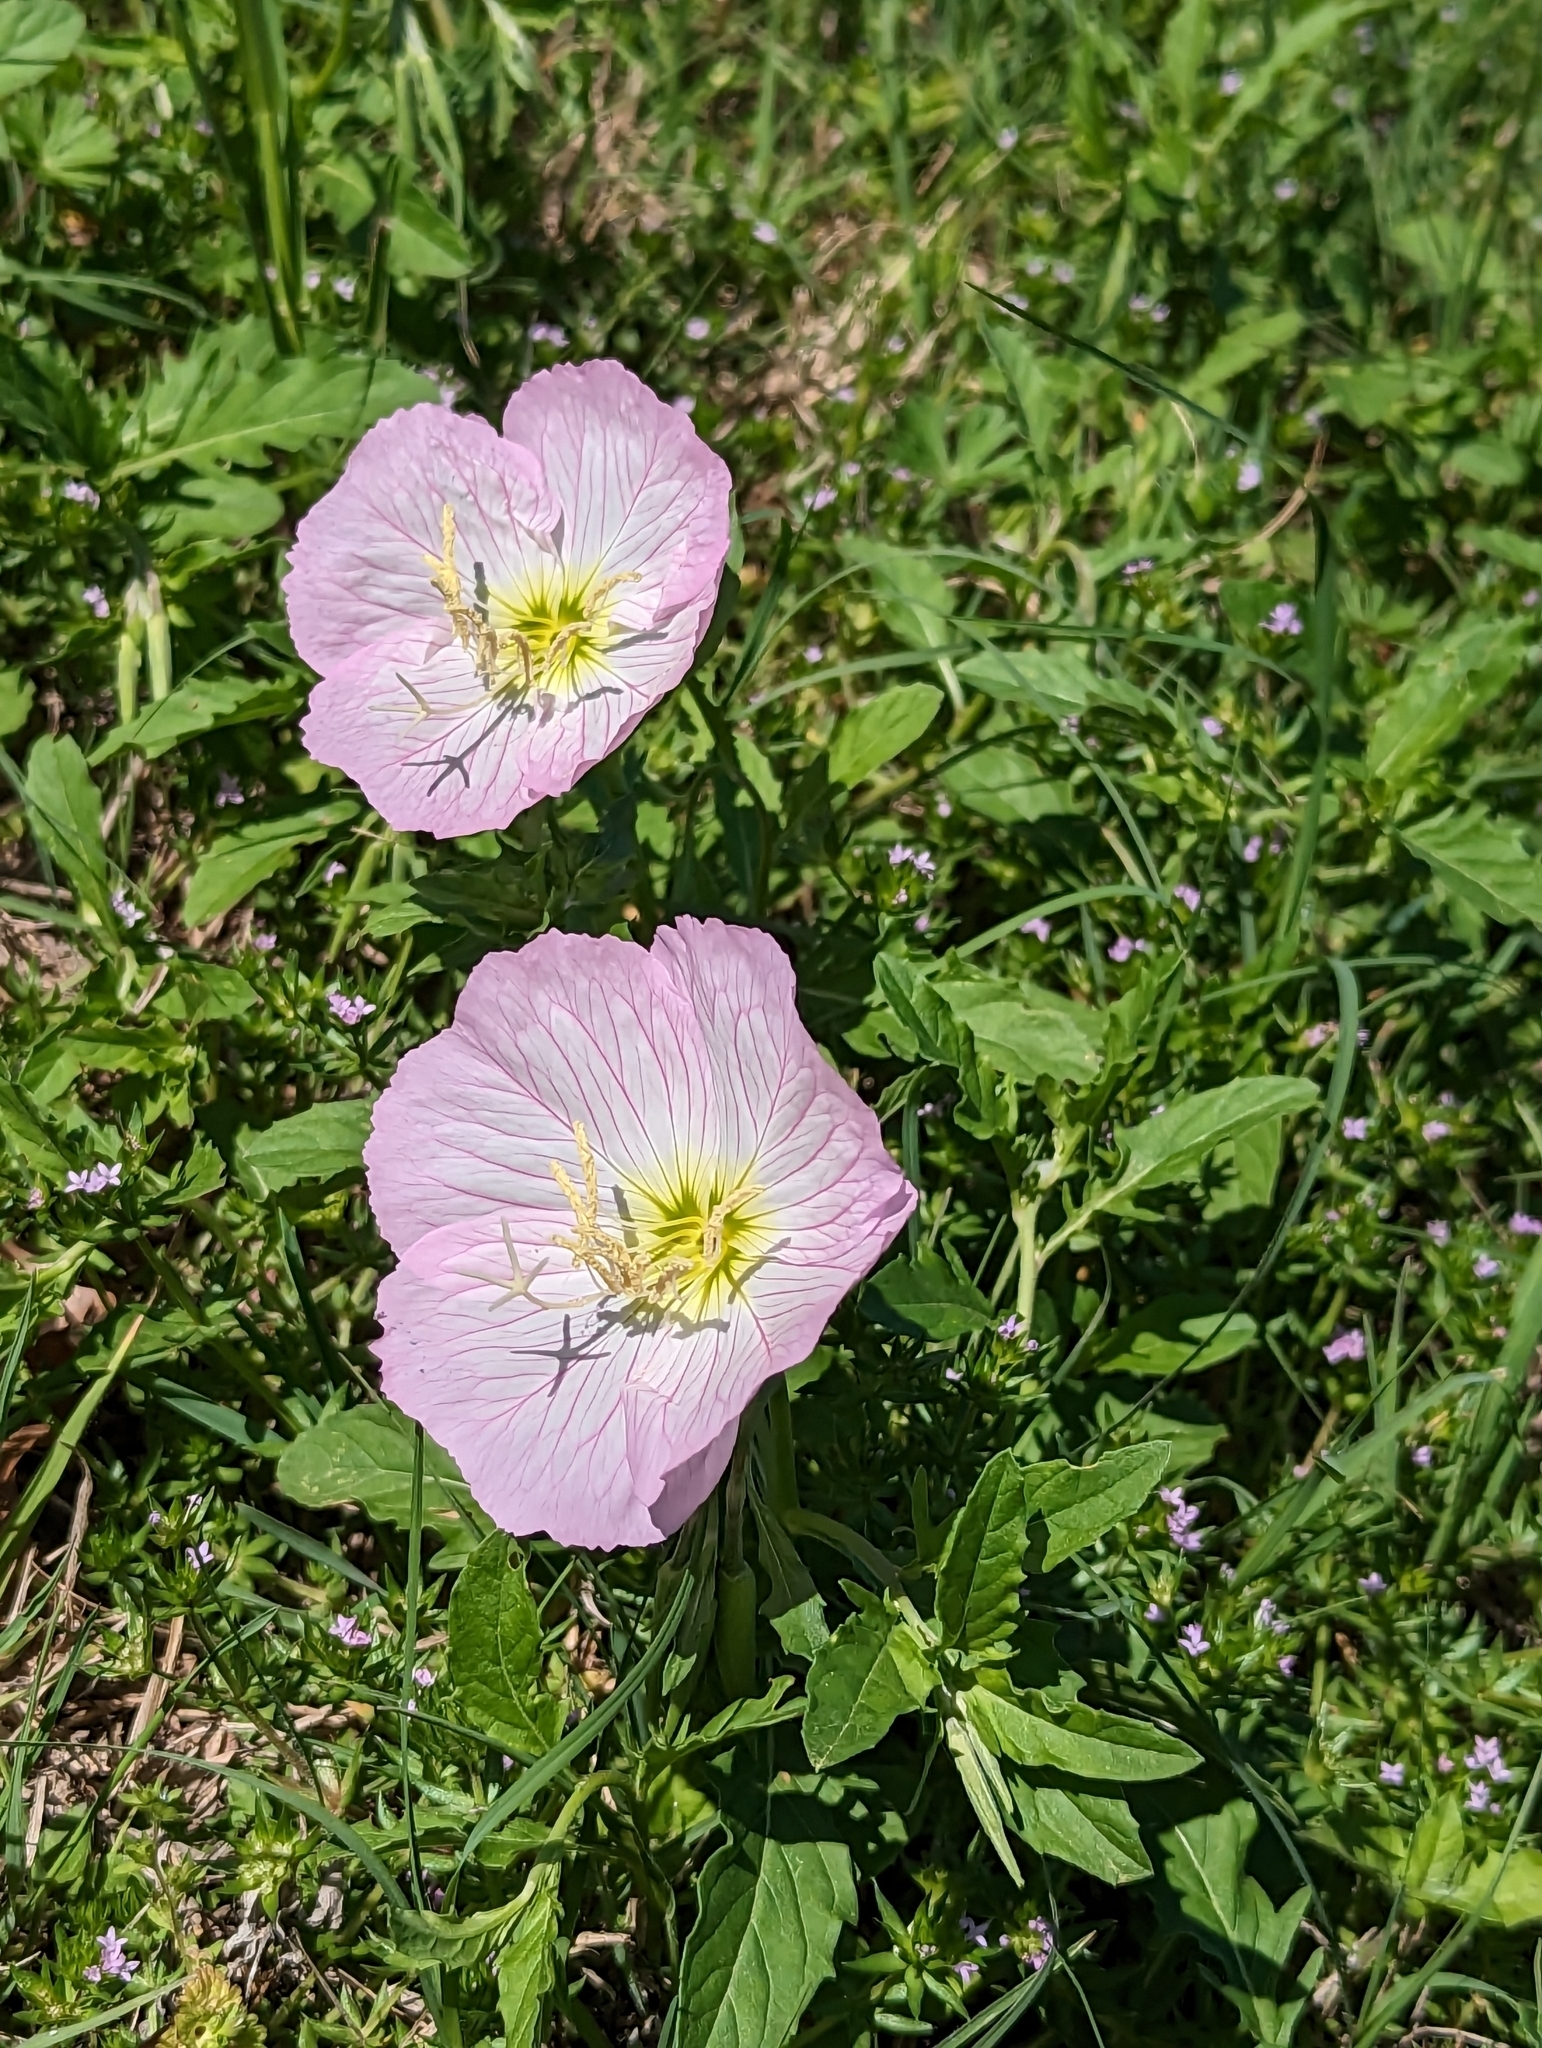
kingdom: Plantae
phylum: Tracheophyta
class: Magnoliopsida
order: Myrtales
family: Onagraceae
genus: Oenothera
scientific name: Oenothera speciosa
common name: White evening-primrose
